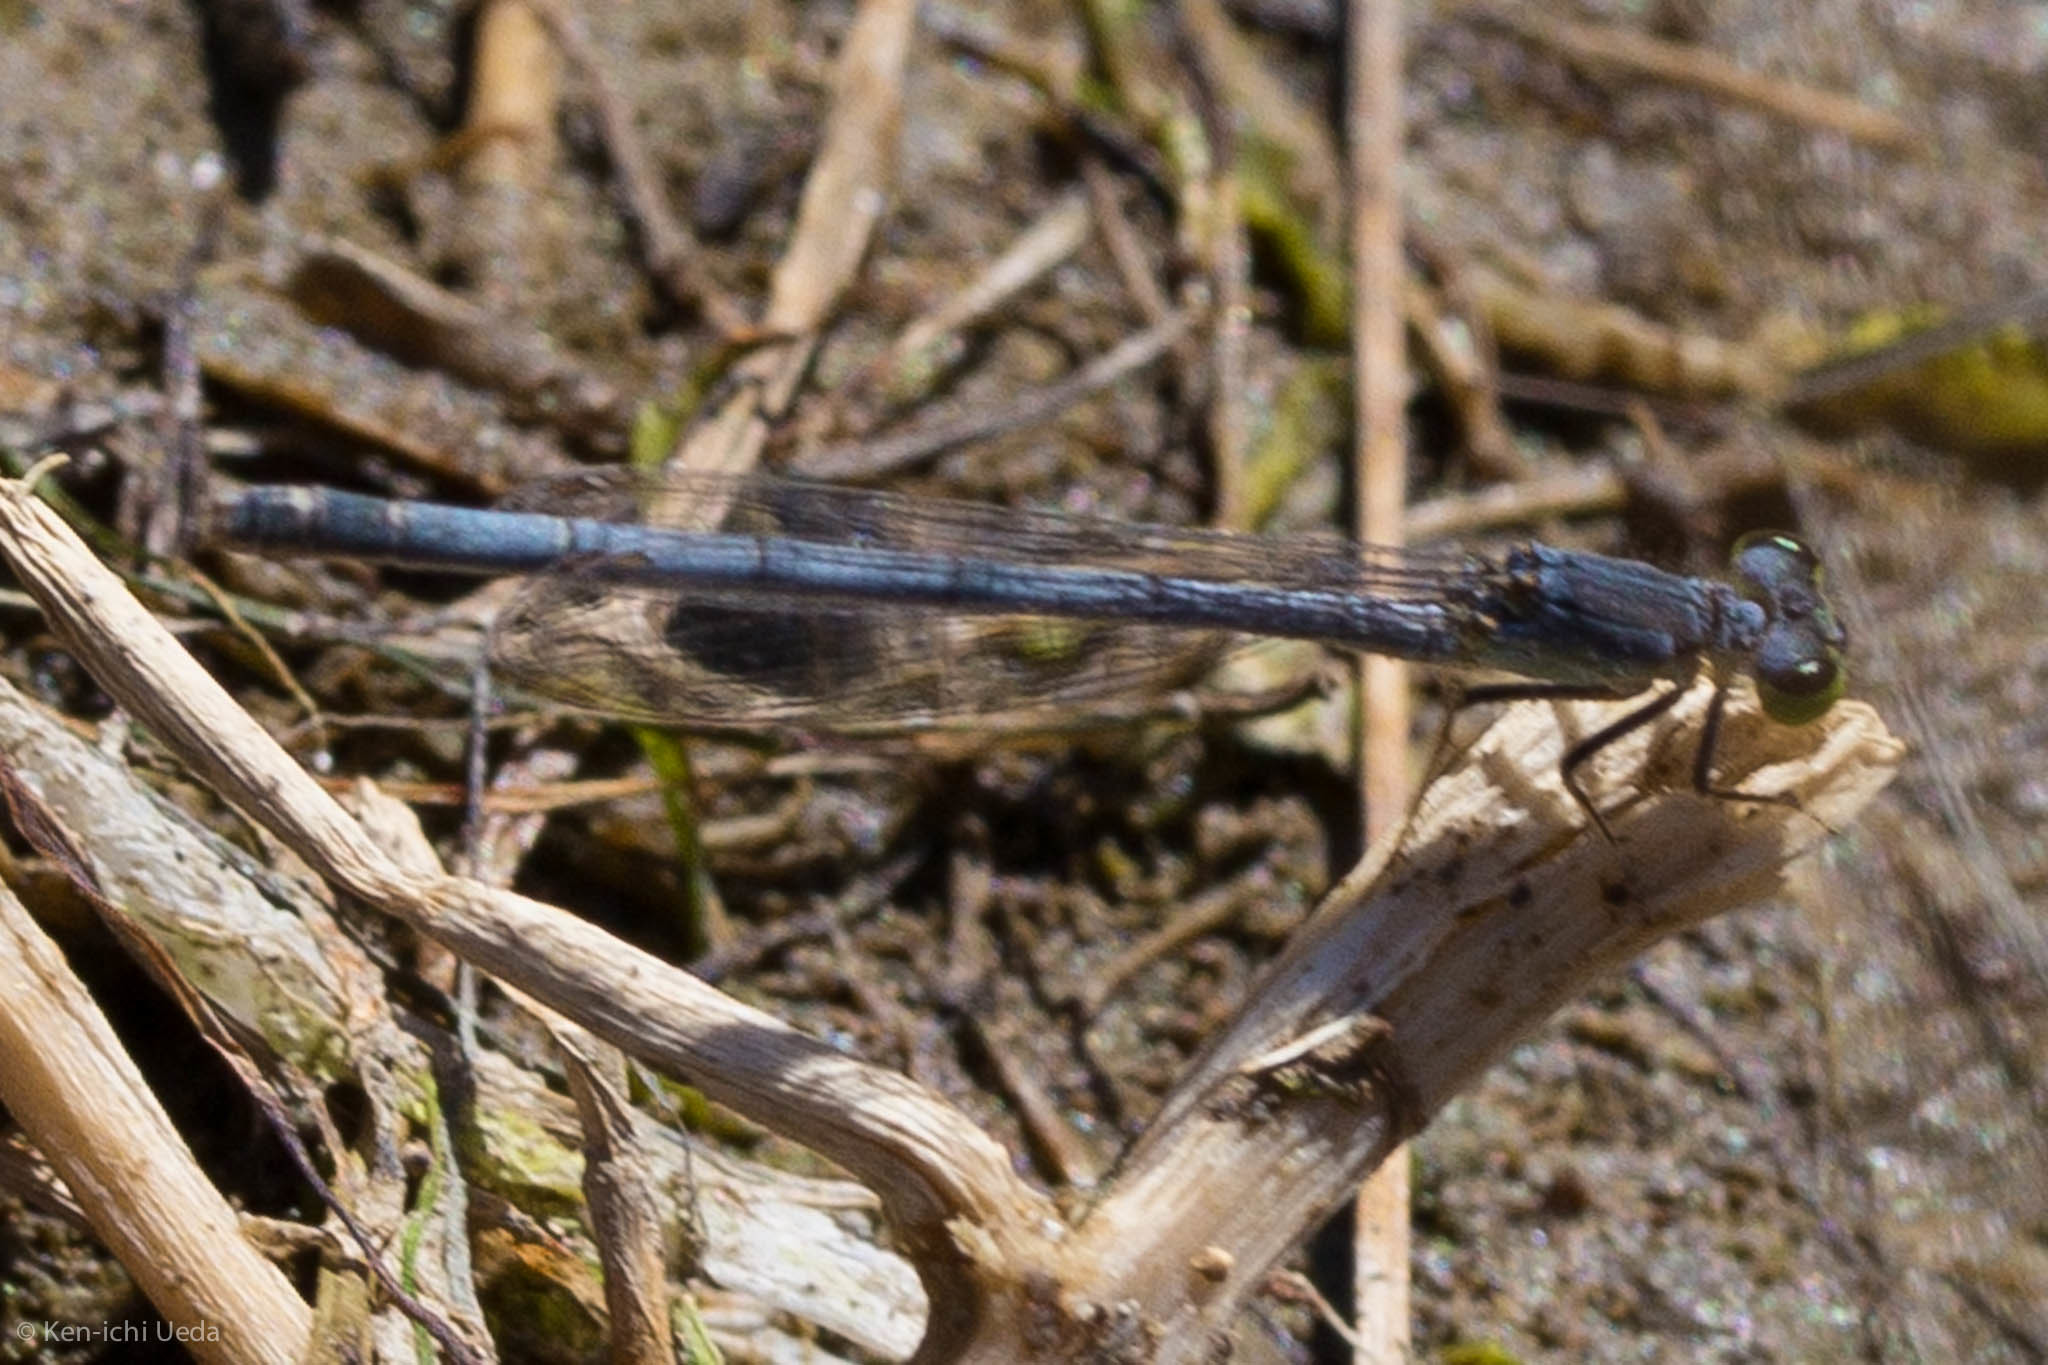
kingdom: Animalia
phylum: Arthropoda
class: Insecta
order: Odonata
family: Coenagrionidae
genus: Ischnura
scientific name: Ischnura perparva
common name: Western forktail
